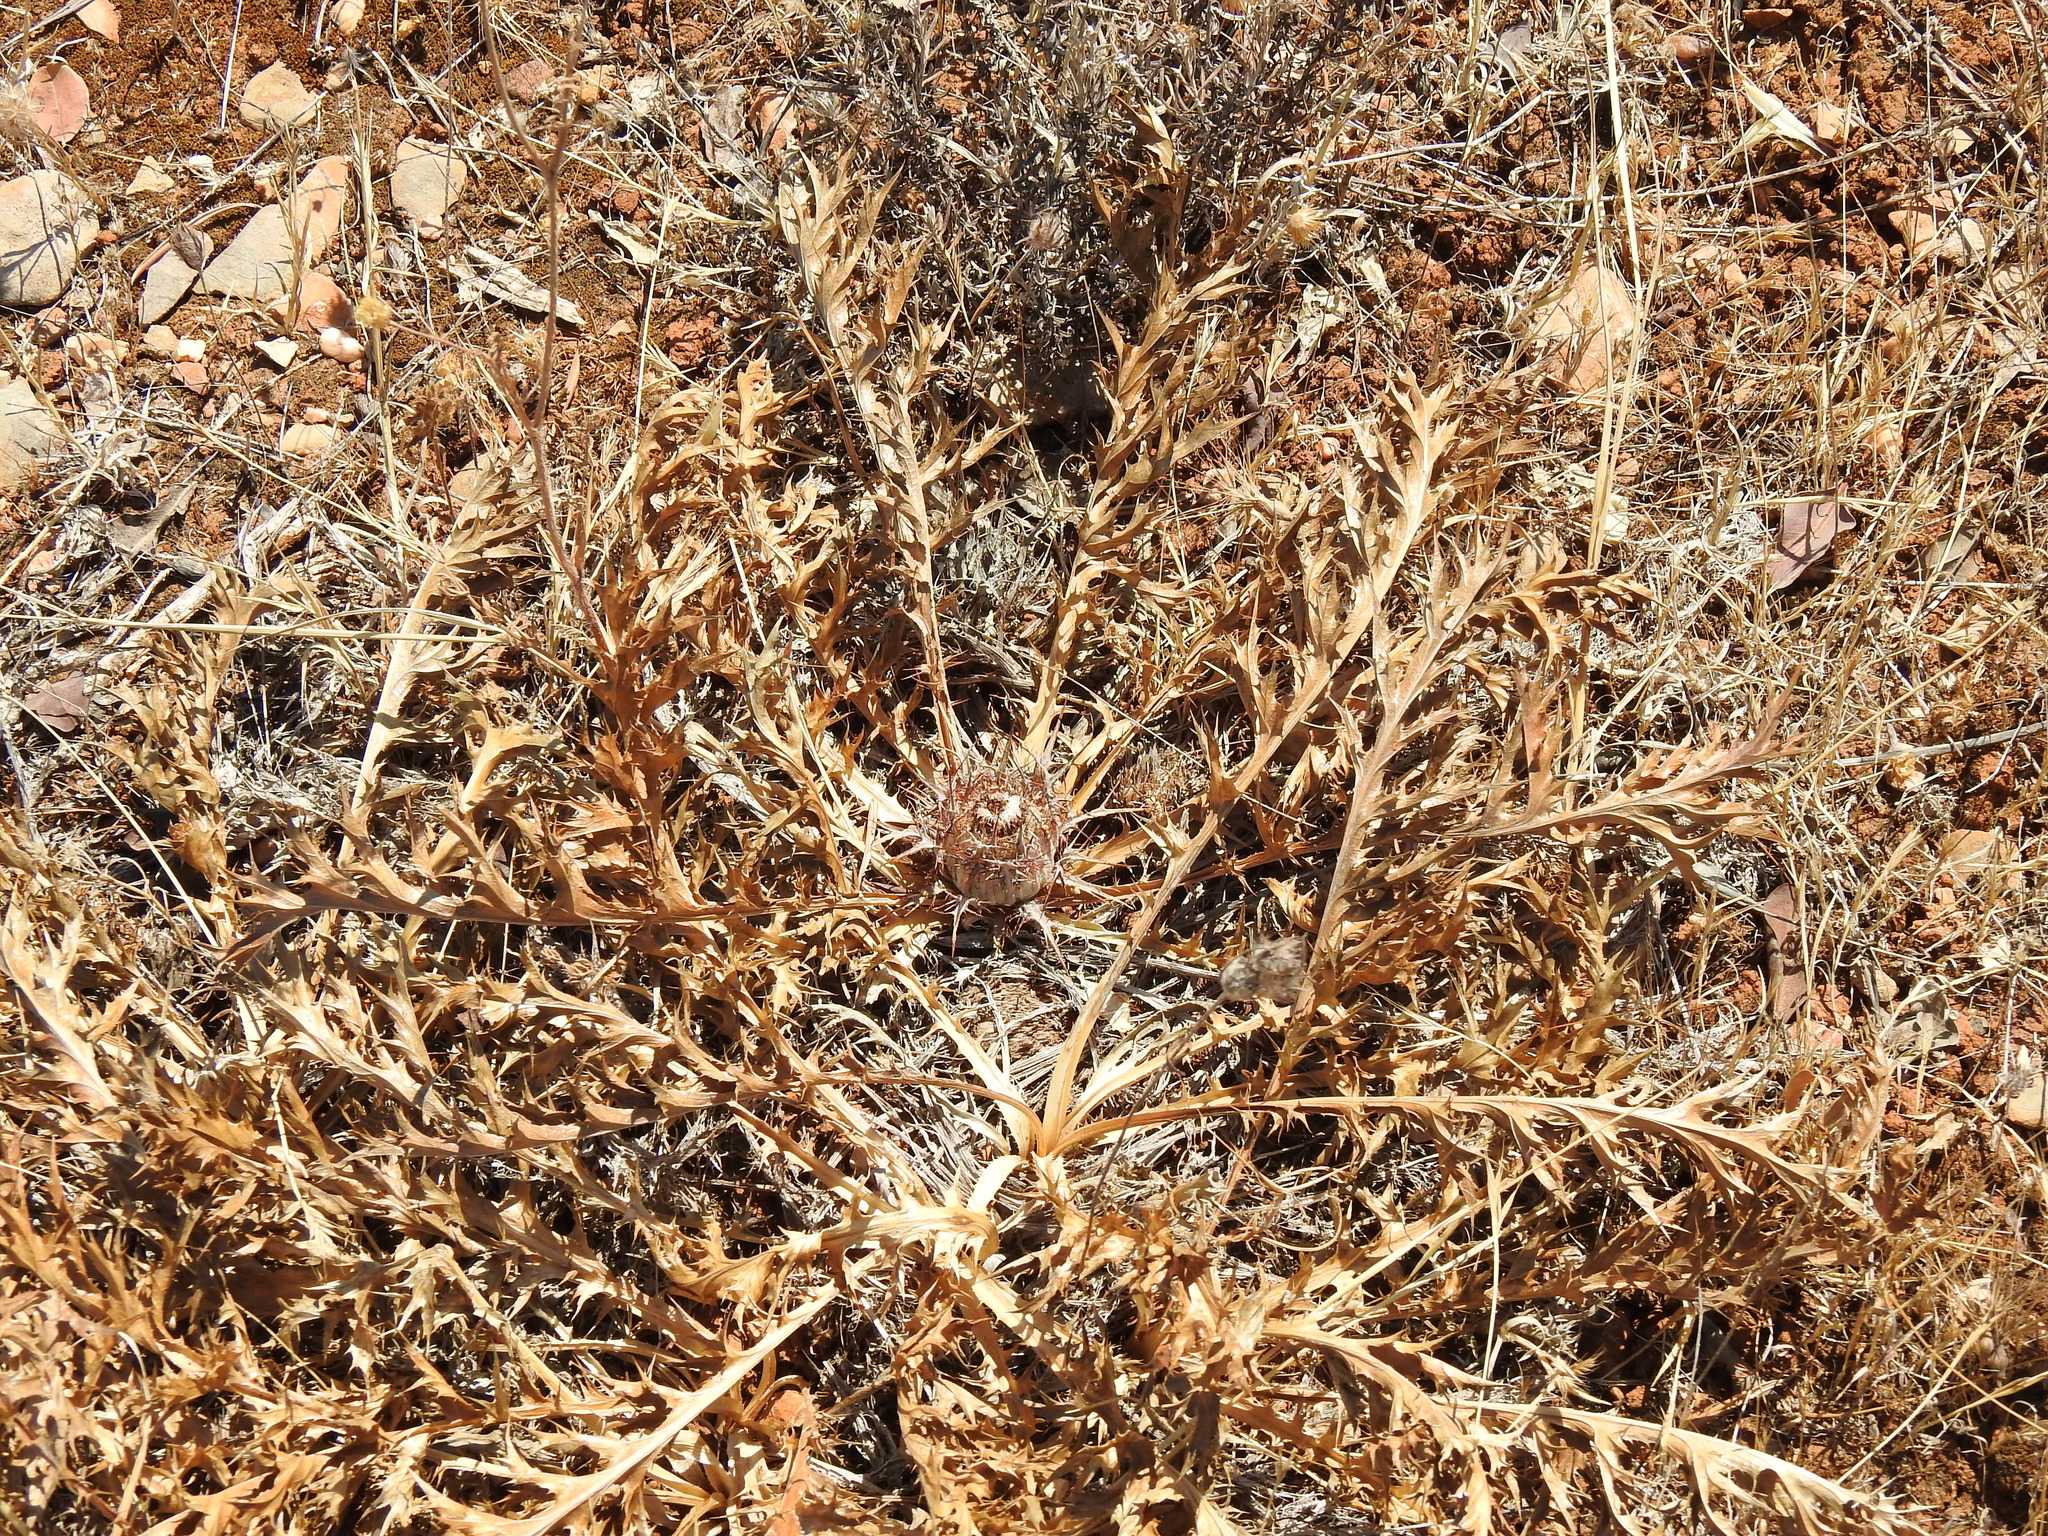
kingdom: Plantae
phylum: Tracheophyta
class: Magnoliopsida
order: Asterales
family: Asteraceae
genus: Chamaeleon
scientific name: Chamaeleon gummifer
